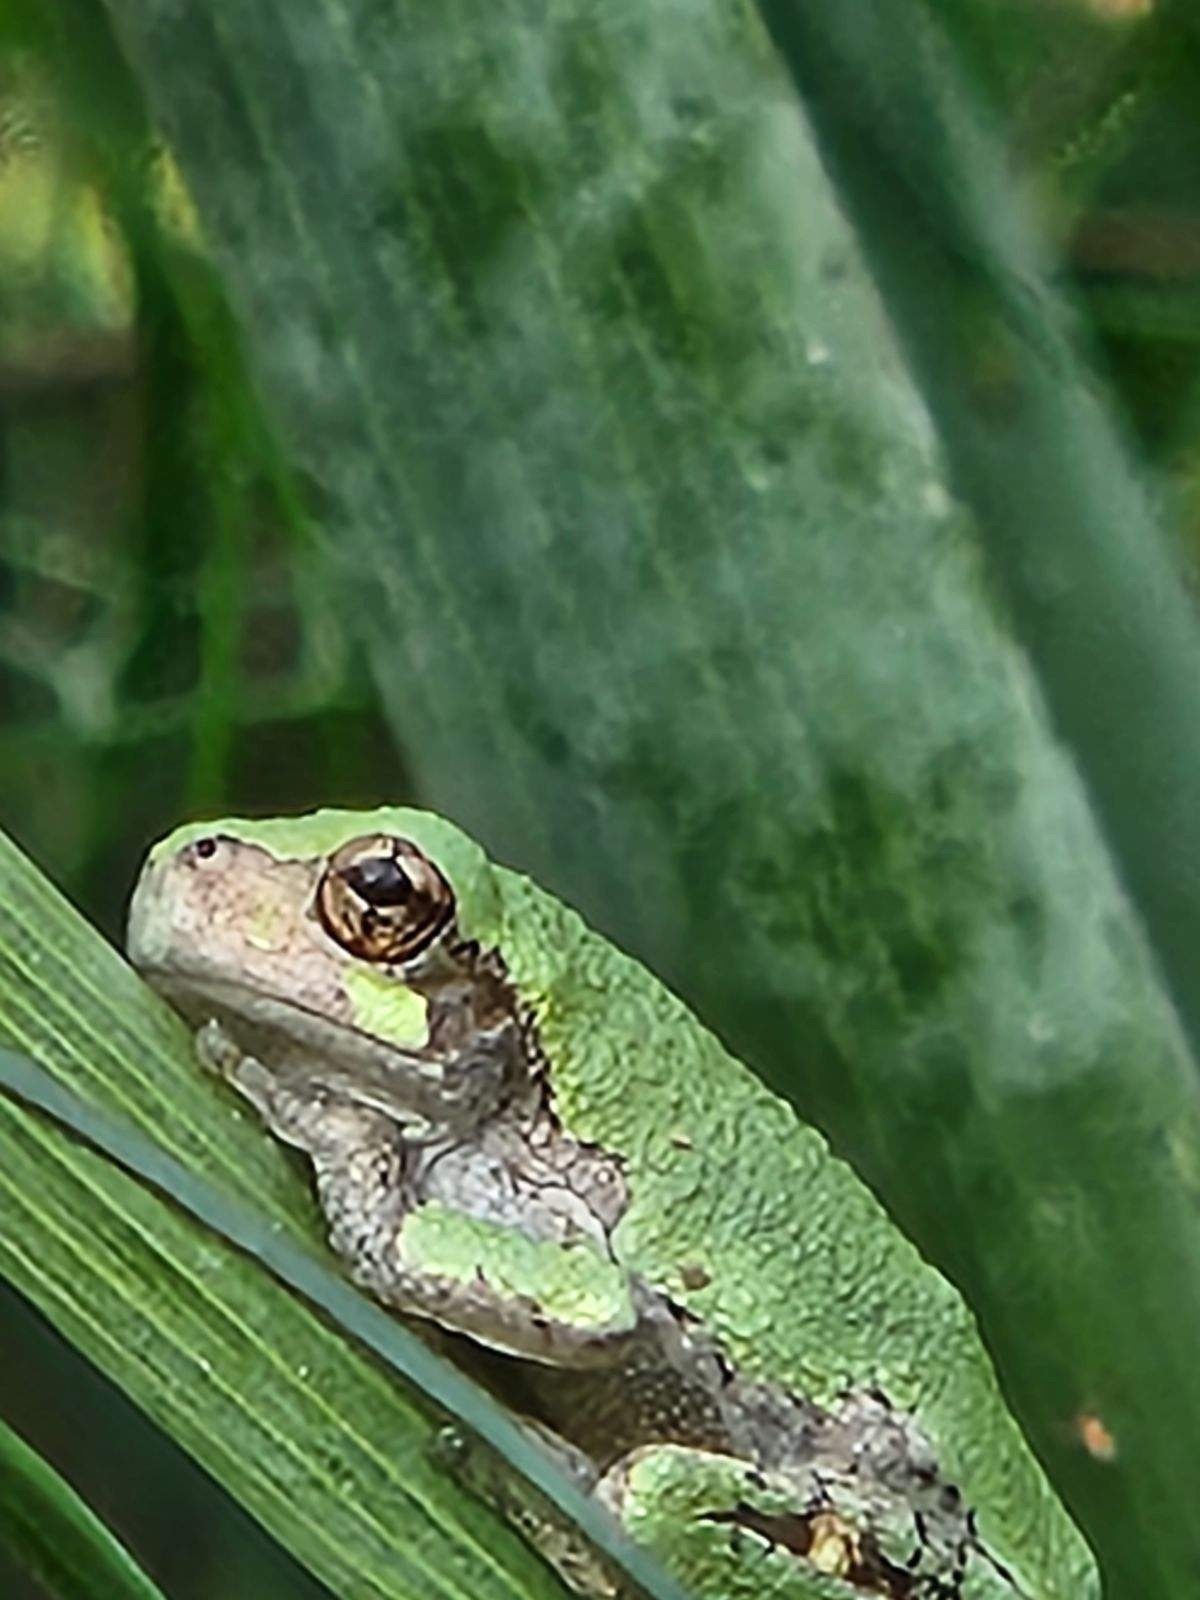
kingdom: Animalia
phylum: Chordata
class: Amphibia
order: Anura
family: Hylidae
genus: Dryophytes
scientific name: Dryophytes versicolor
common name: Gray treefrog
